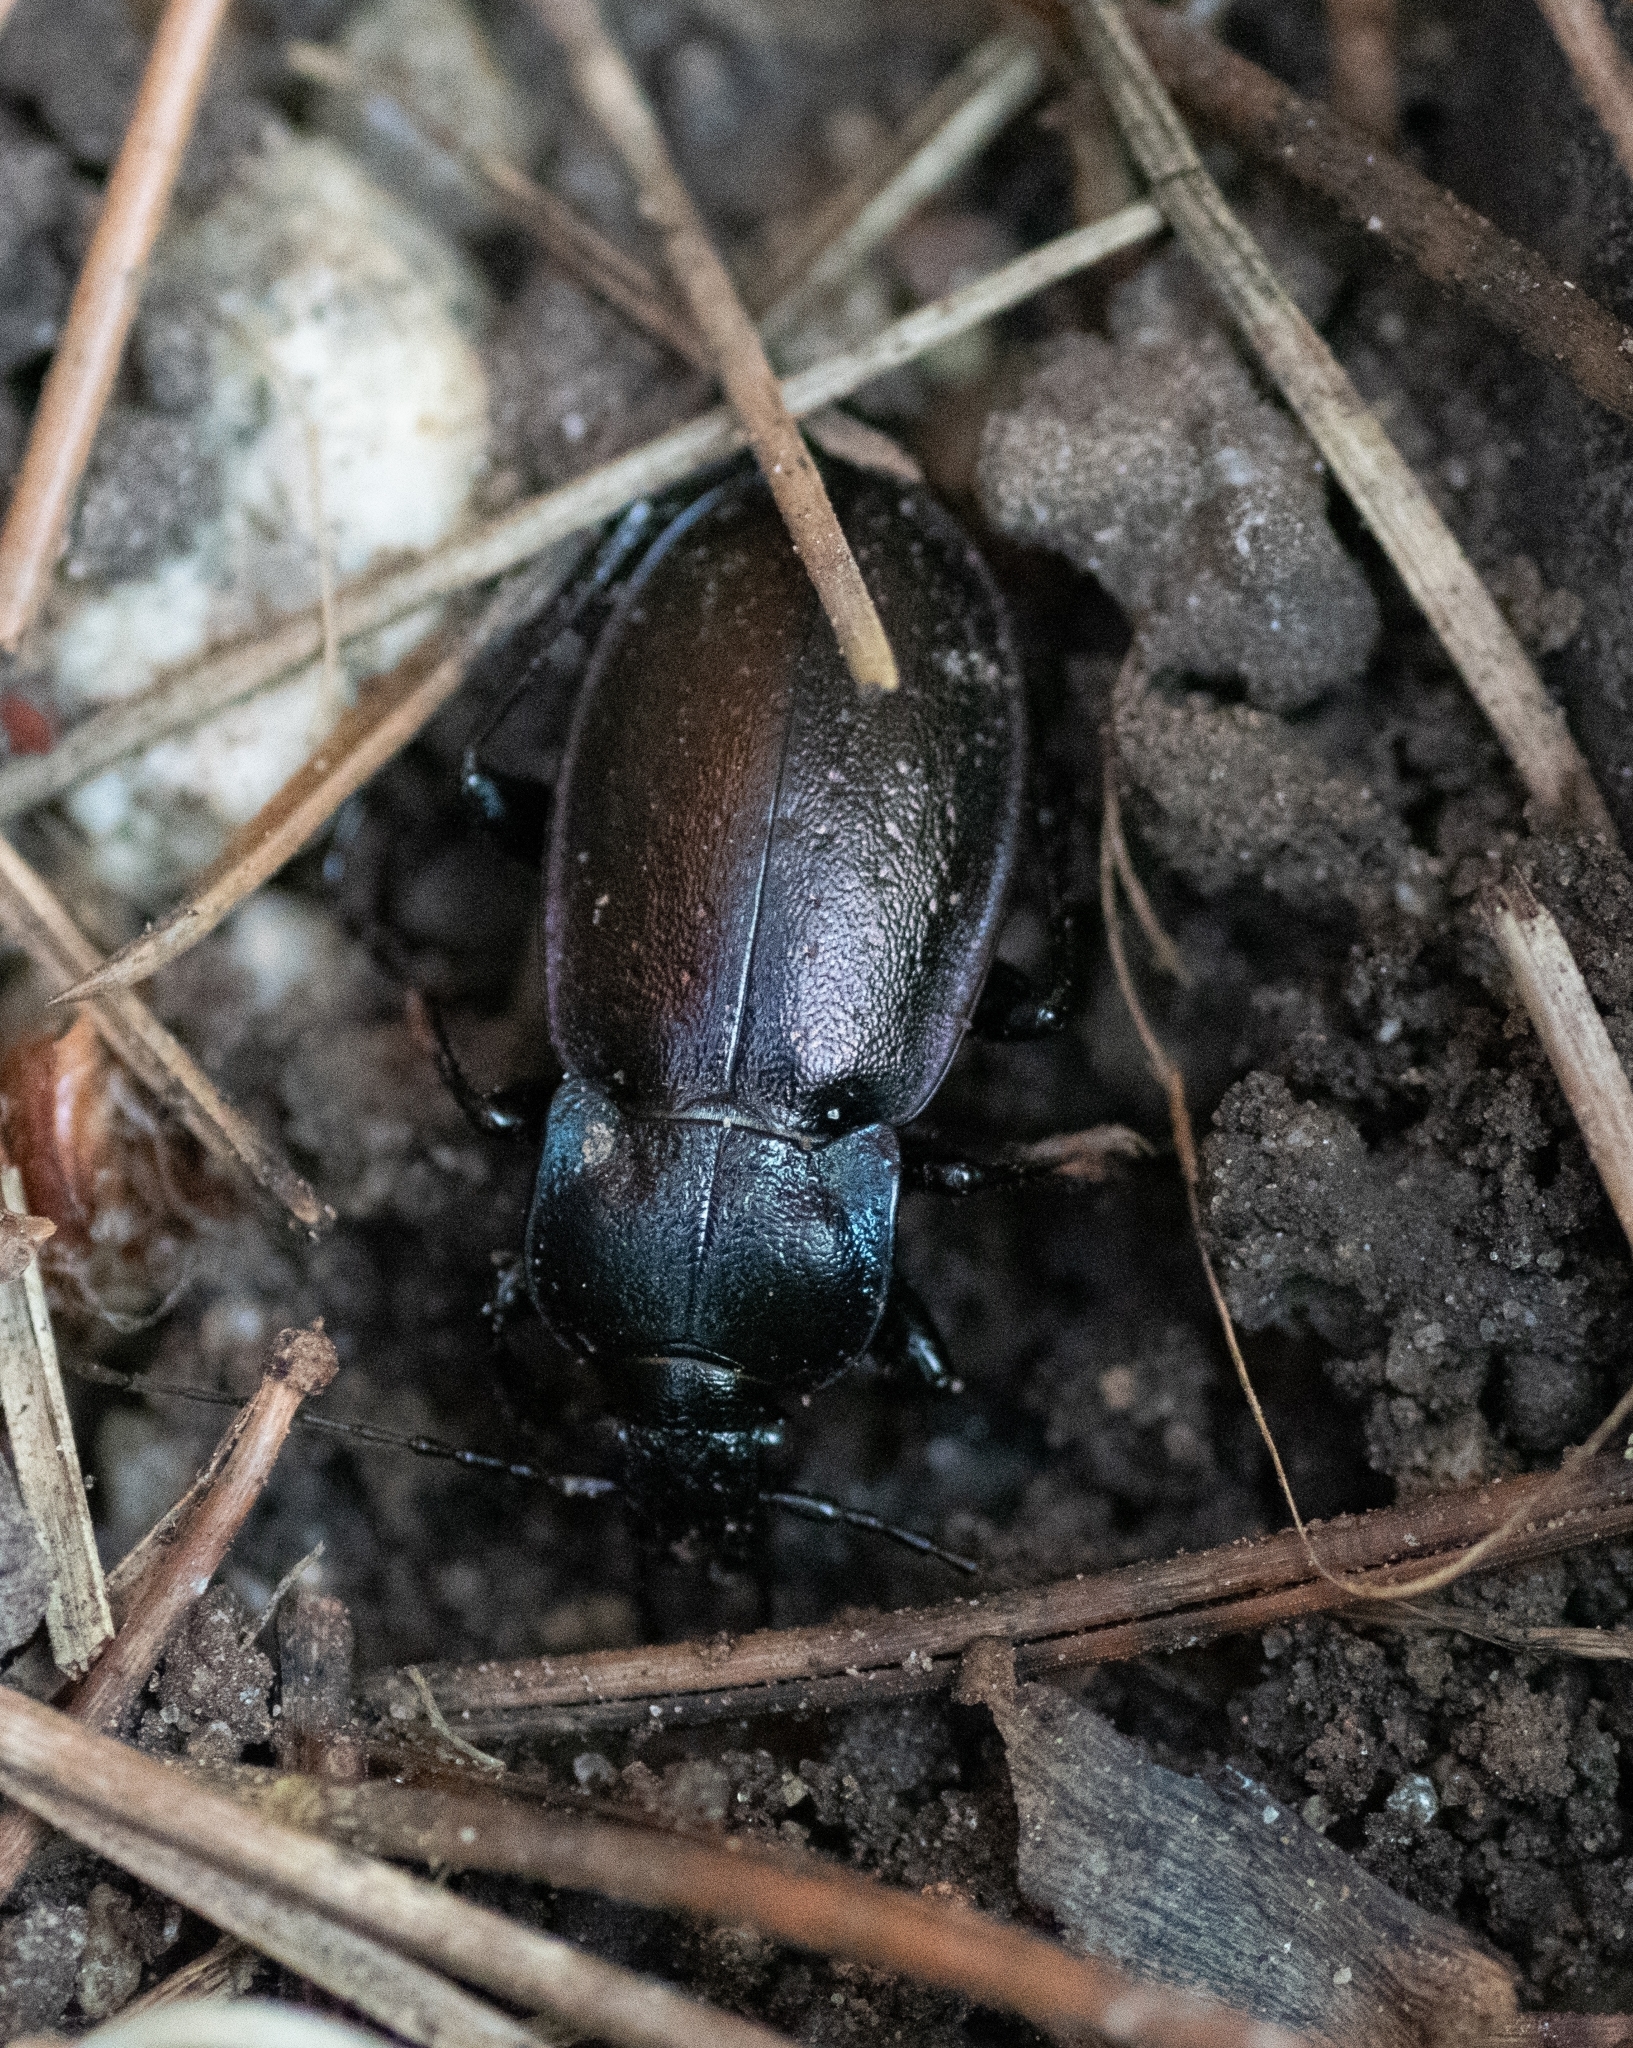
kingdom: Animalia
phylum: Arthropoda
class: Insecta
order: Coleoptera
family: Carabidae
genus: Carabus
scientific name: Carabus nemoralis
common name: European ground beetle
